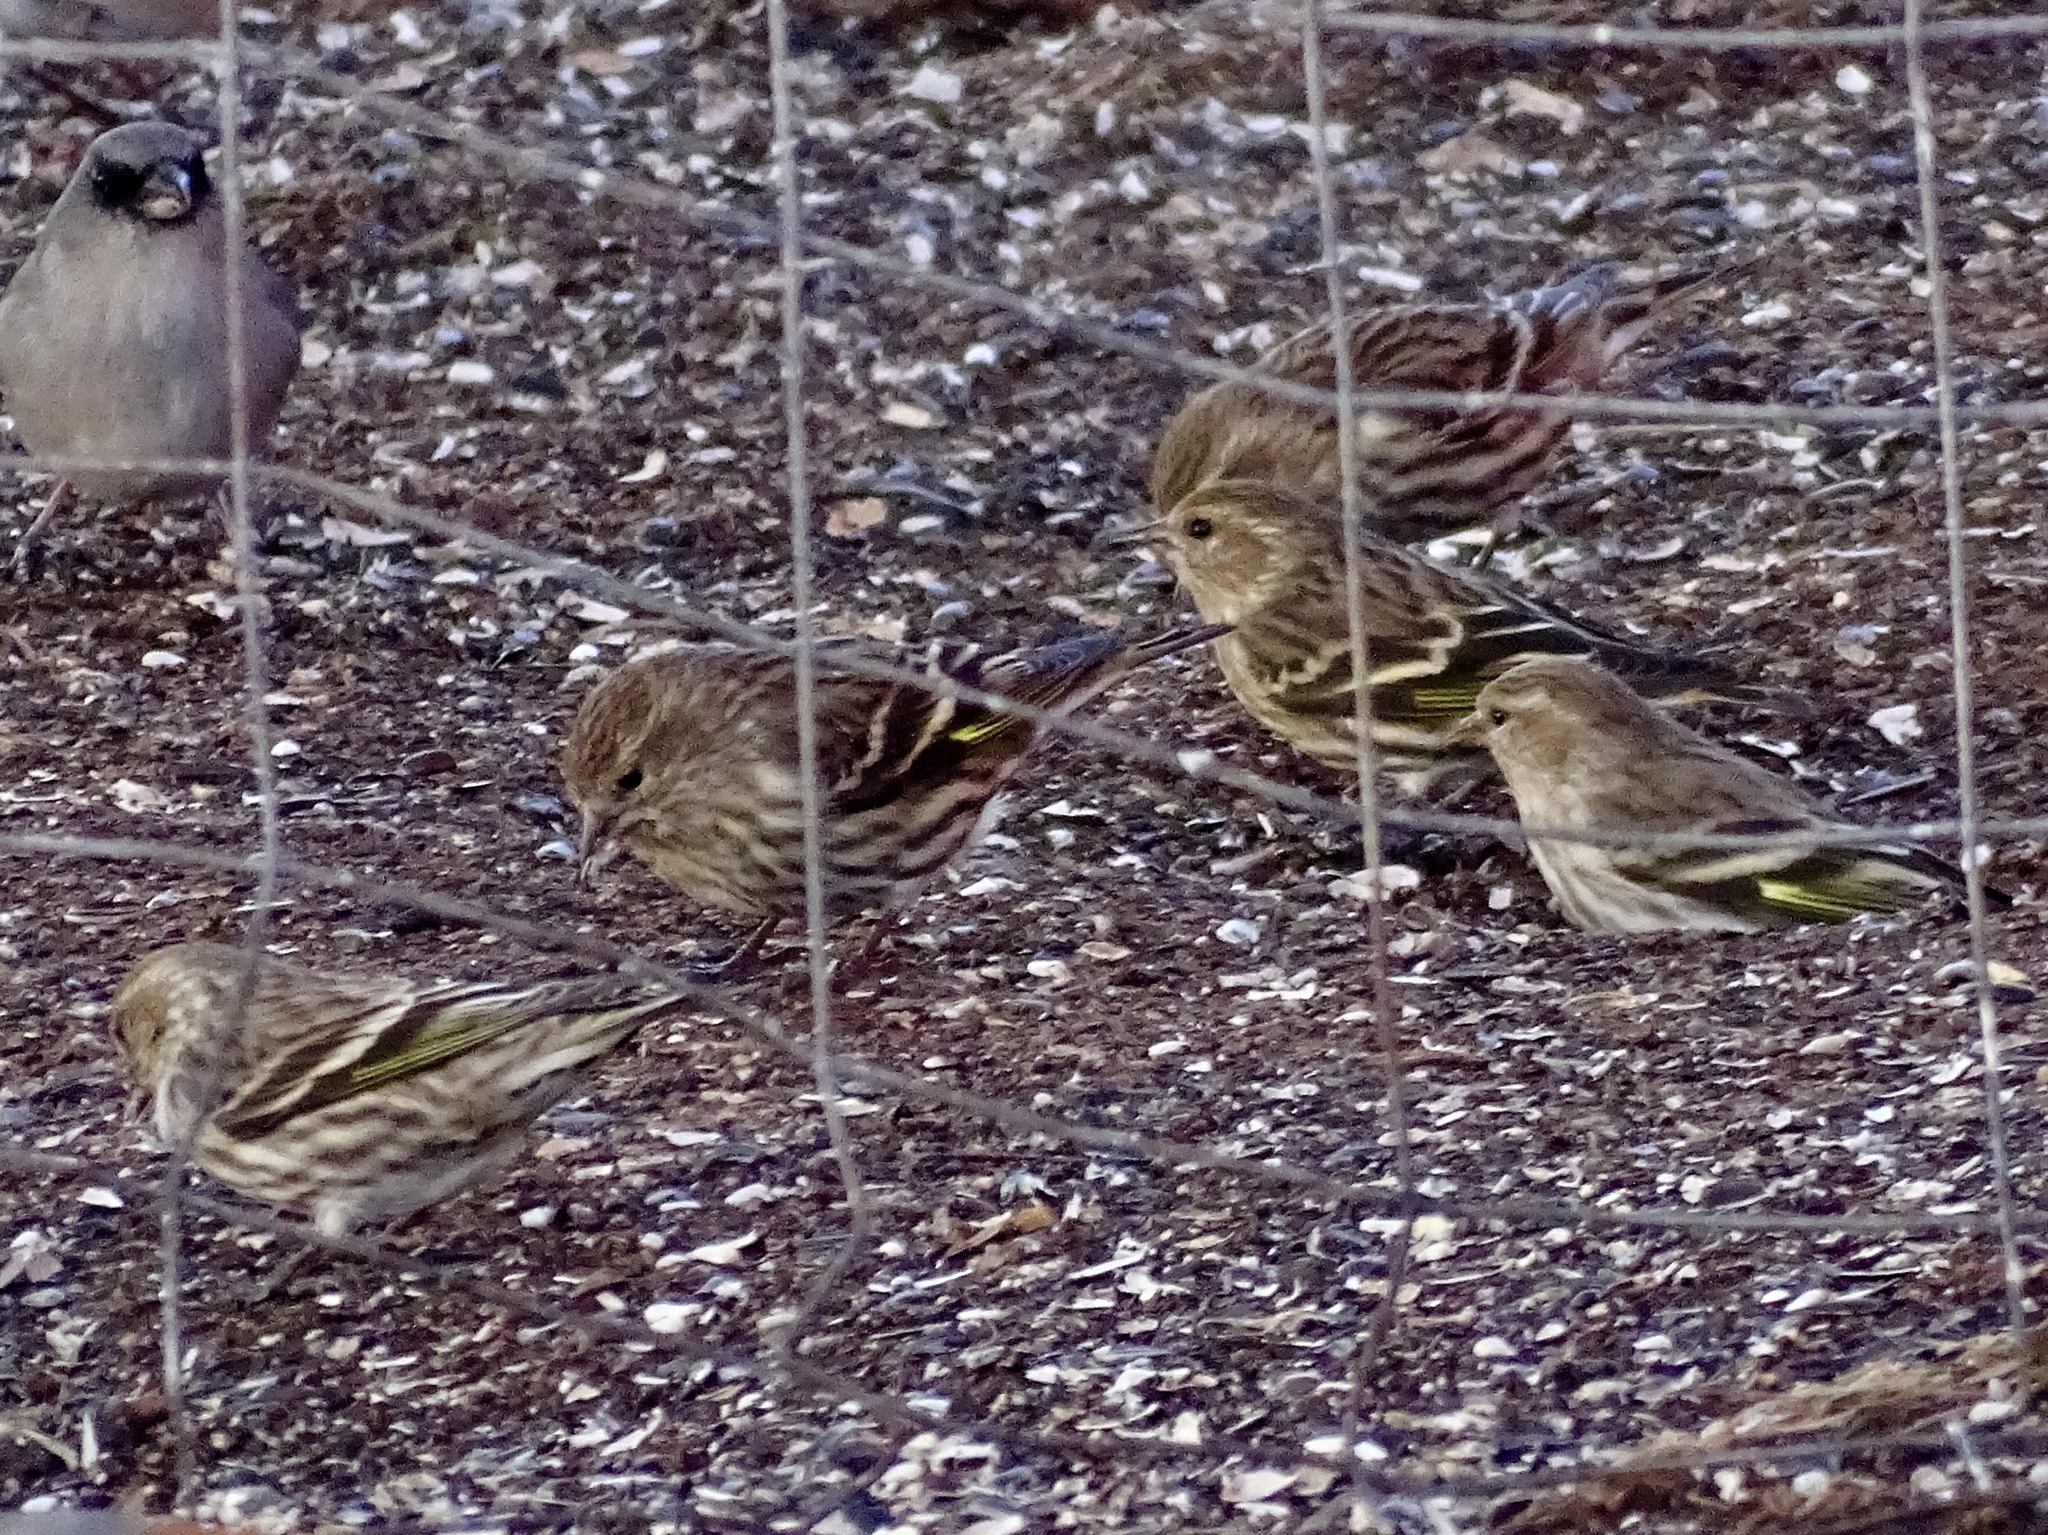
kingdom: Animalia
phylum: Chordata
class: Aves
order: Passeriformes
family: Fringillidae
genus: Spinus
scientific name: Spinus pinus
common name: Pine siskin
